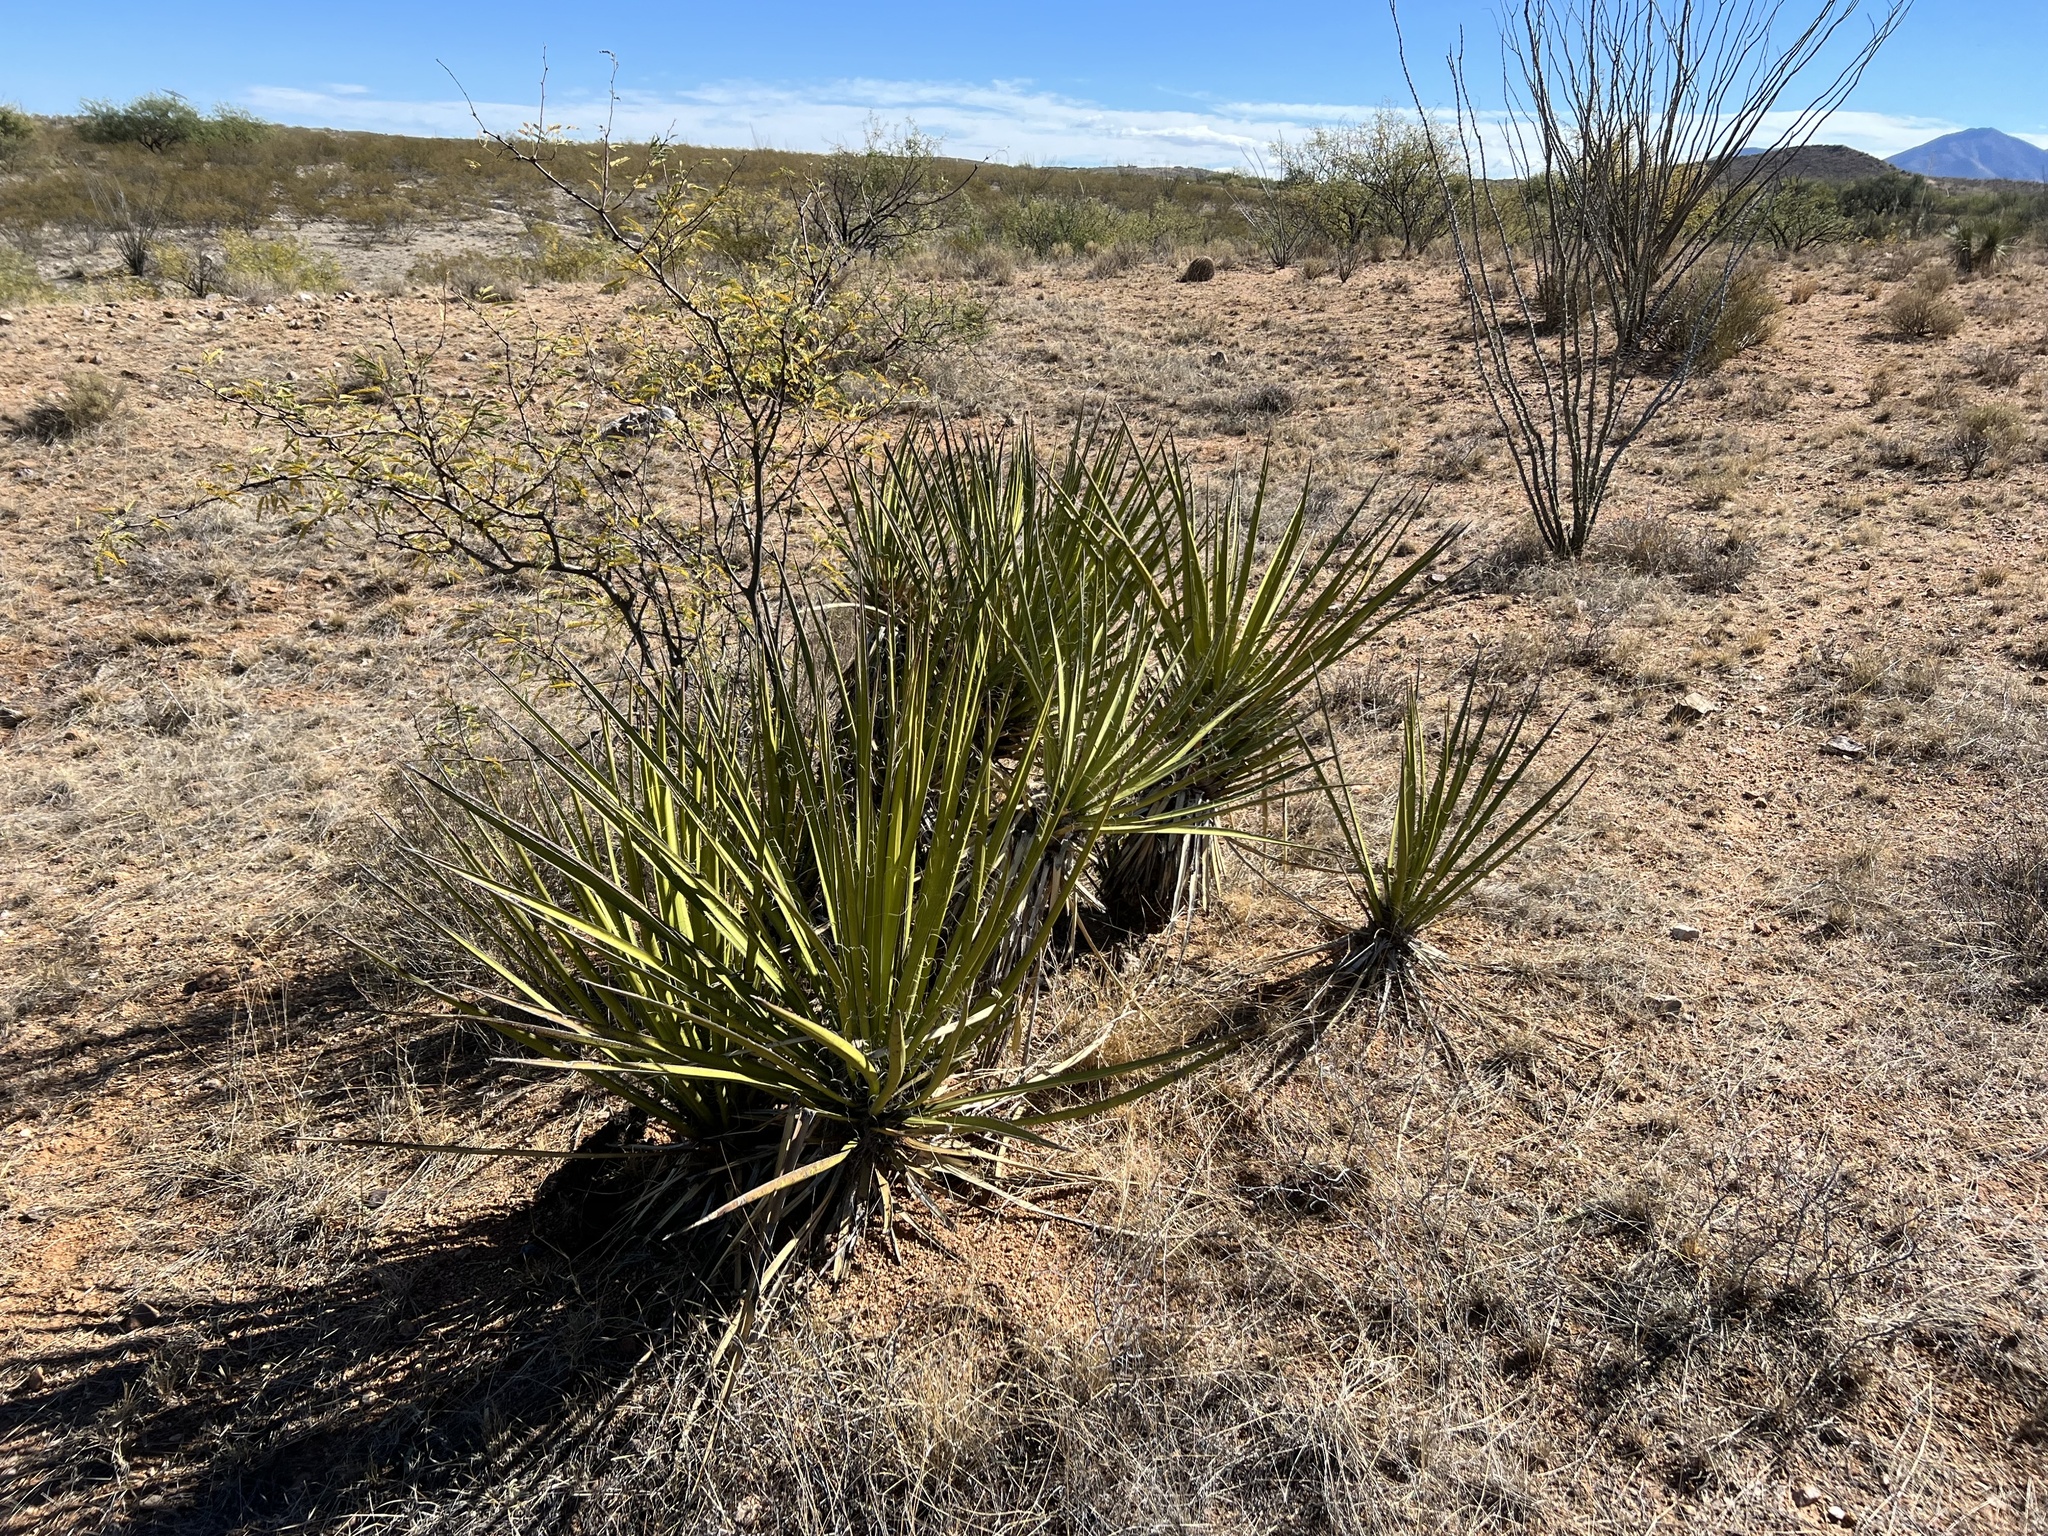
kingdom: Plantae
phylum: Tracheophyta
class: Liliopsida
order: Asparagales
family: Asparagaceae
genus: Yucca
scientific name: Yucca baccata
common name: Banana yucca
